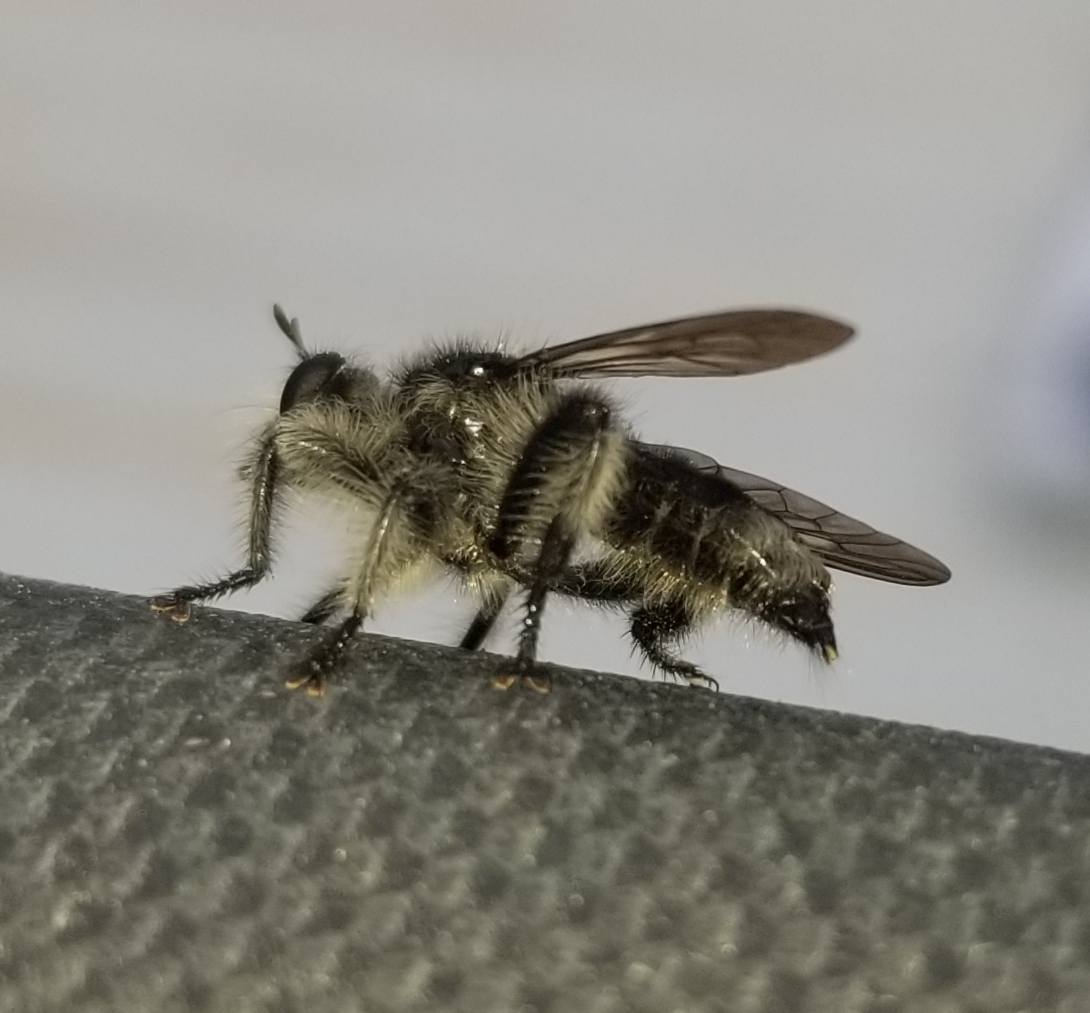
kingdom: Animalia
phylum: Arthropoda
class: Insecta
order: Diptera
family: Asilidae
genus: Laphria
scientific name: Laphria cinerea
